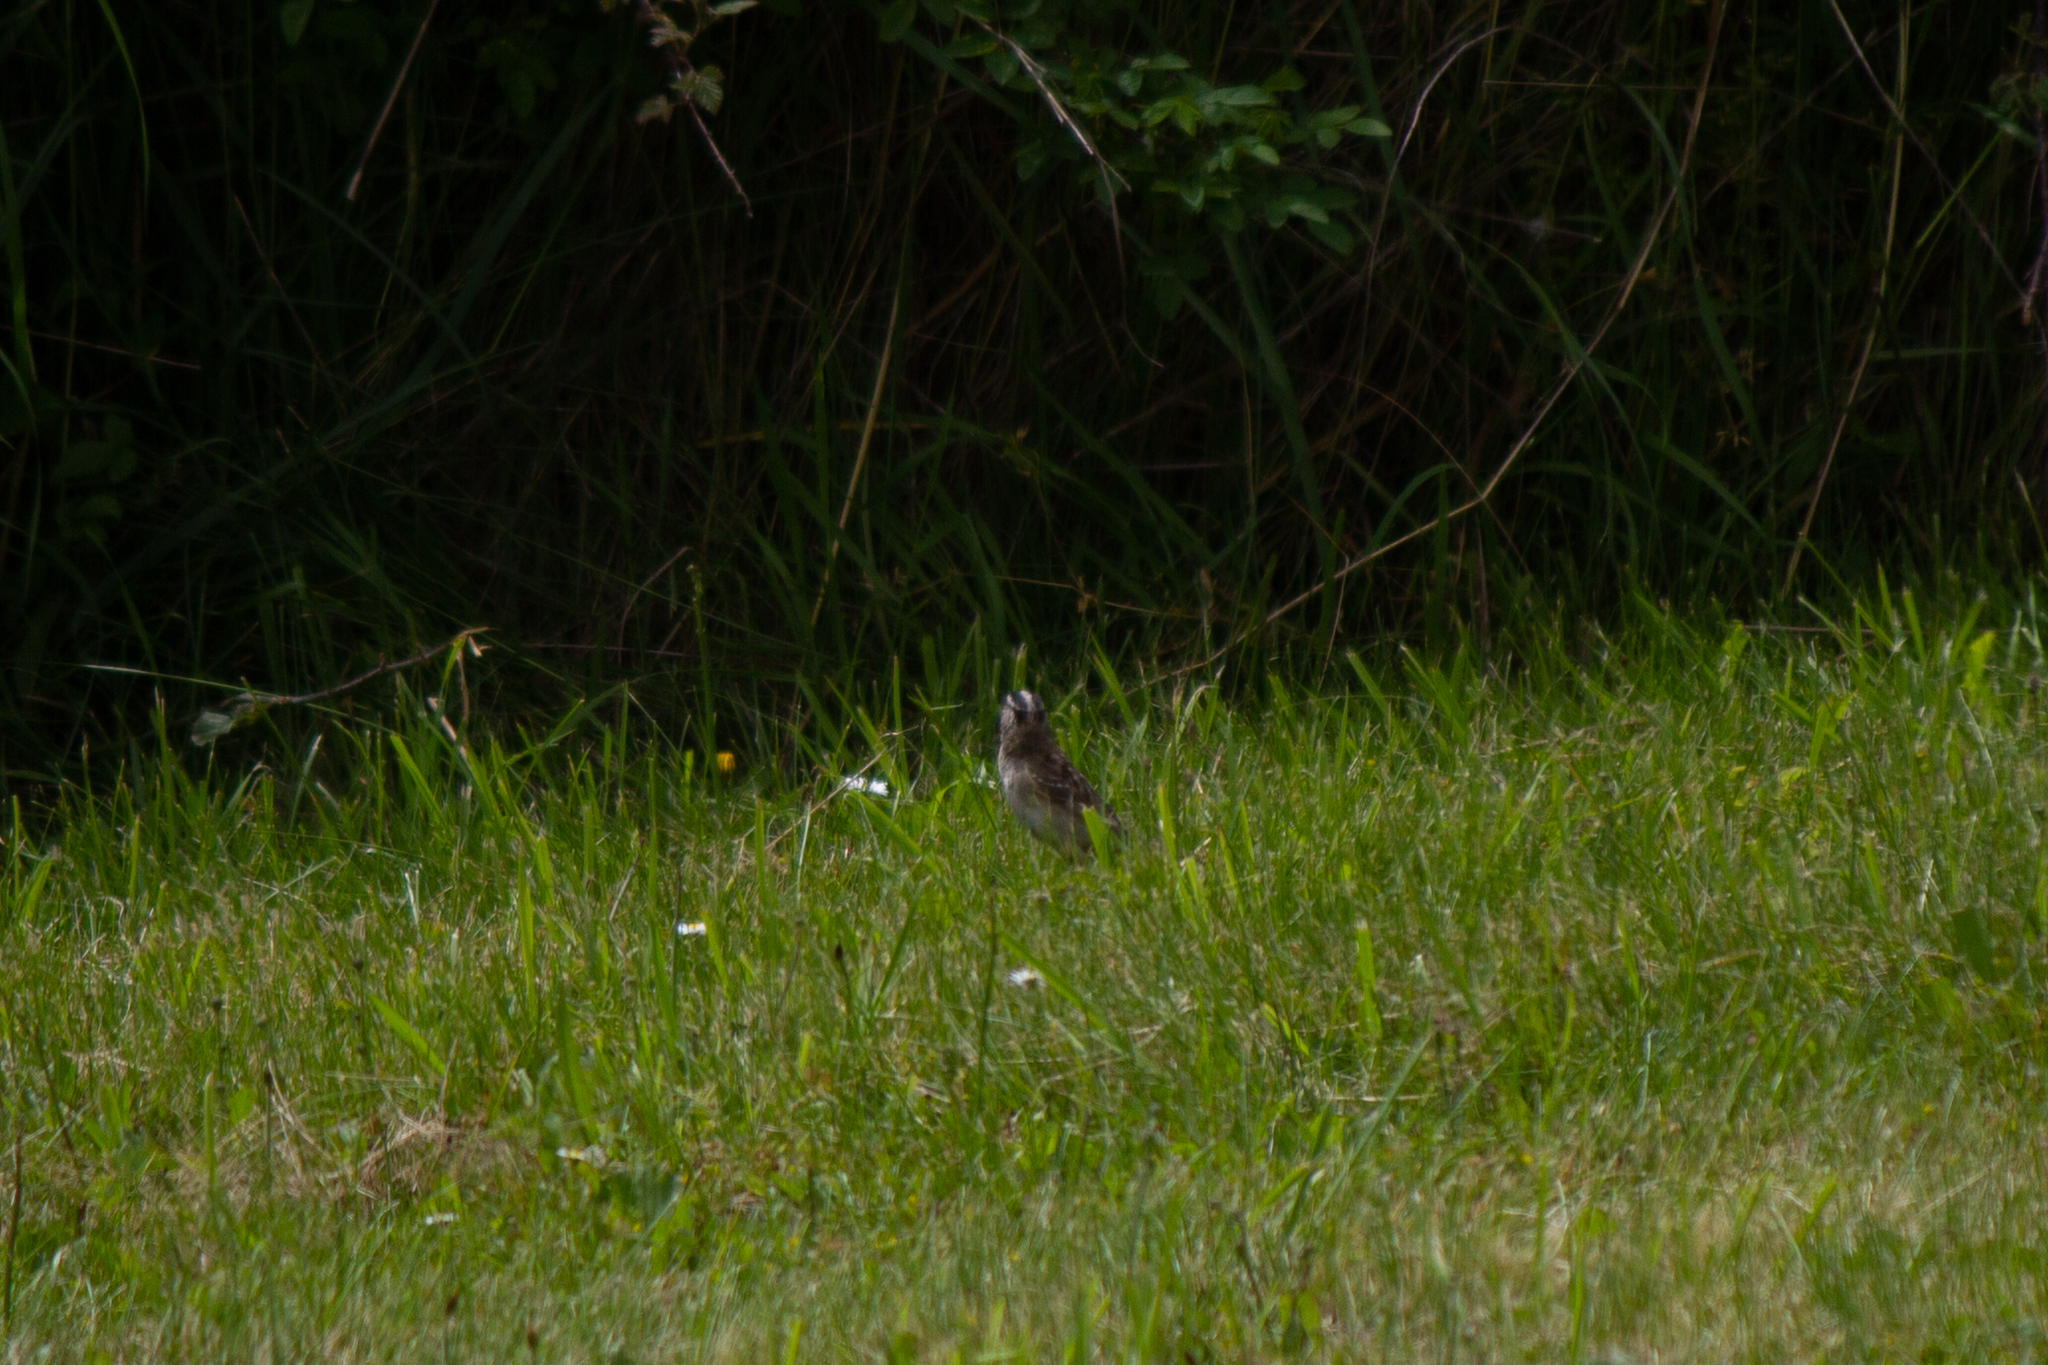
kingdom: Animalia
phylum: Chordata
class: Aves
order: Passeriformes
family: Passerellidae
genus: Zonotrichia
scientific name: Zonotrichia leucophrys
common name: White-crowned sparrow
